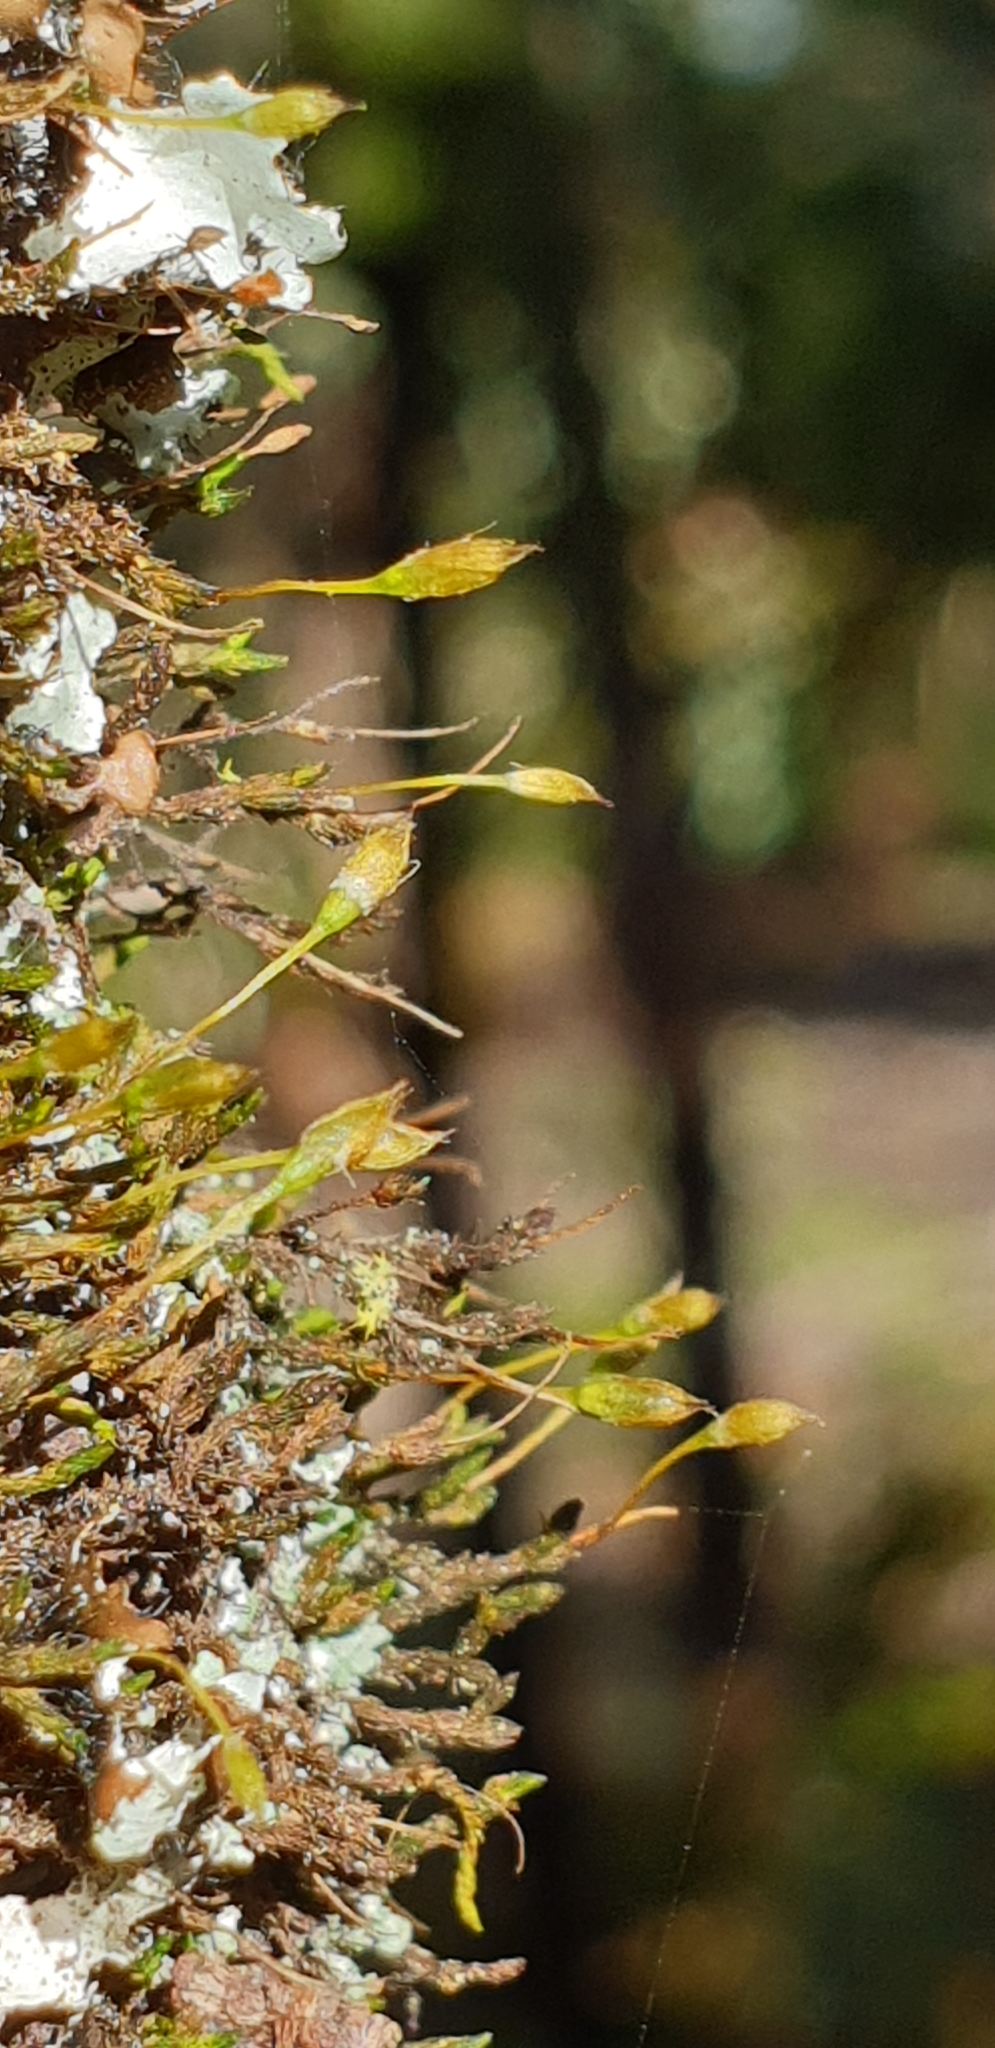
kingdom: Plantae
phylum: Bryophyta
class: Bryopsida
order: Orthotrichales
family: Orthotrichaceae
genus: Macrocoma
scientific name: Macrocoma tenuis
